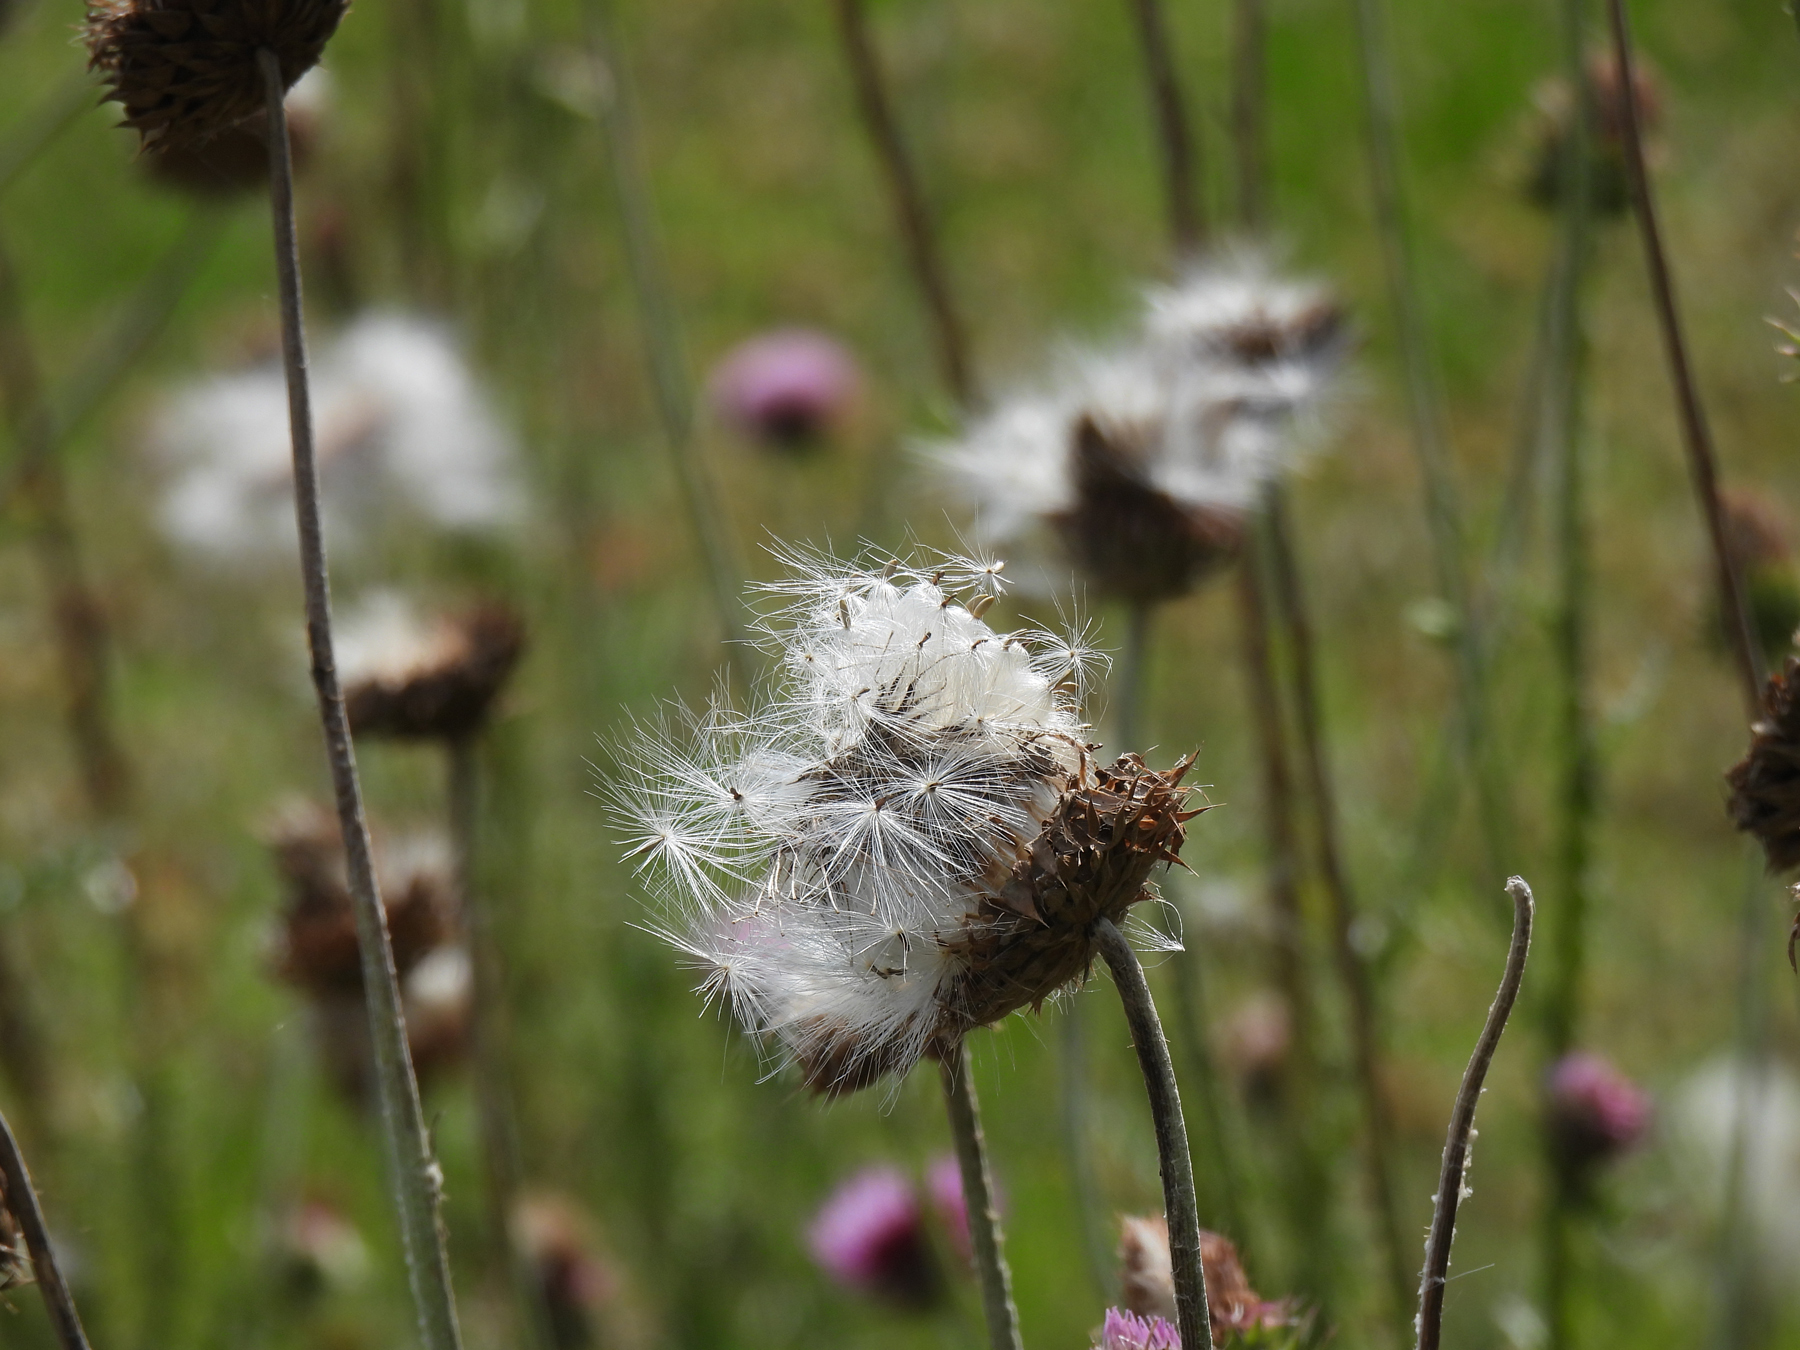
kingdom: Plantae
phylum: Tracheophyta
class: Magnoliopsida
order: Asterales
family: Asteraceae
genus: Cirsium
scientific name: Cirsium texanum
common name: Texas purple thistle
